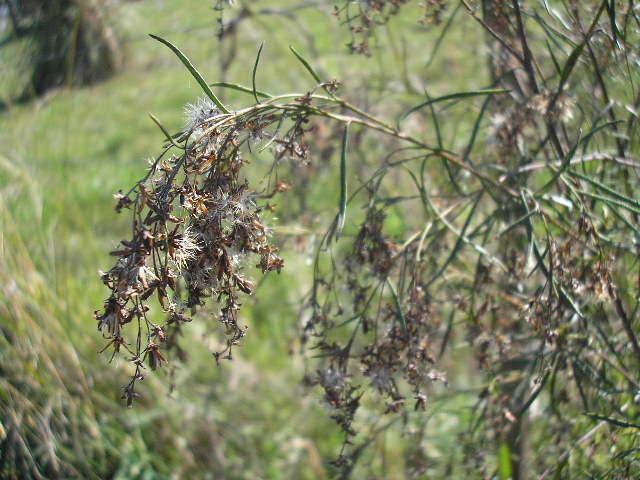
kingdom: Plantae
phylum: Tracheophyta
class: Magnoliopsida
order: Asterales
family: Asteraceae
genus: Acanthostyles
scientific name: Acanthostyles buniifolius
